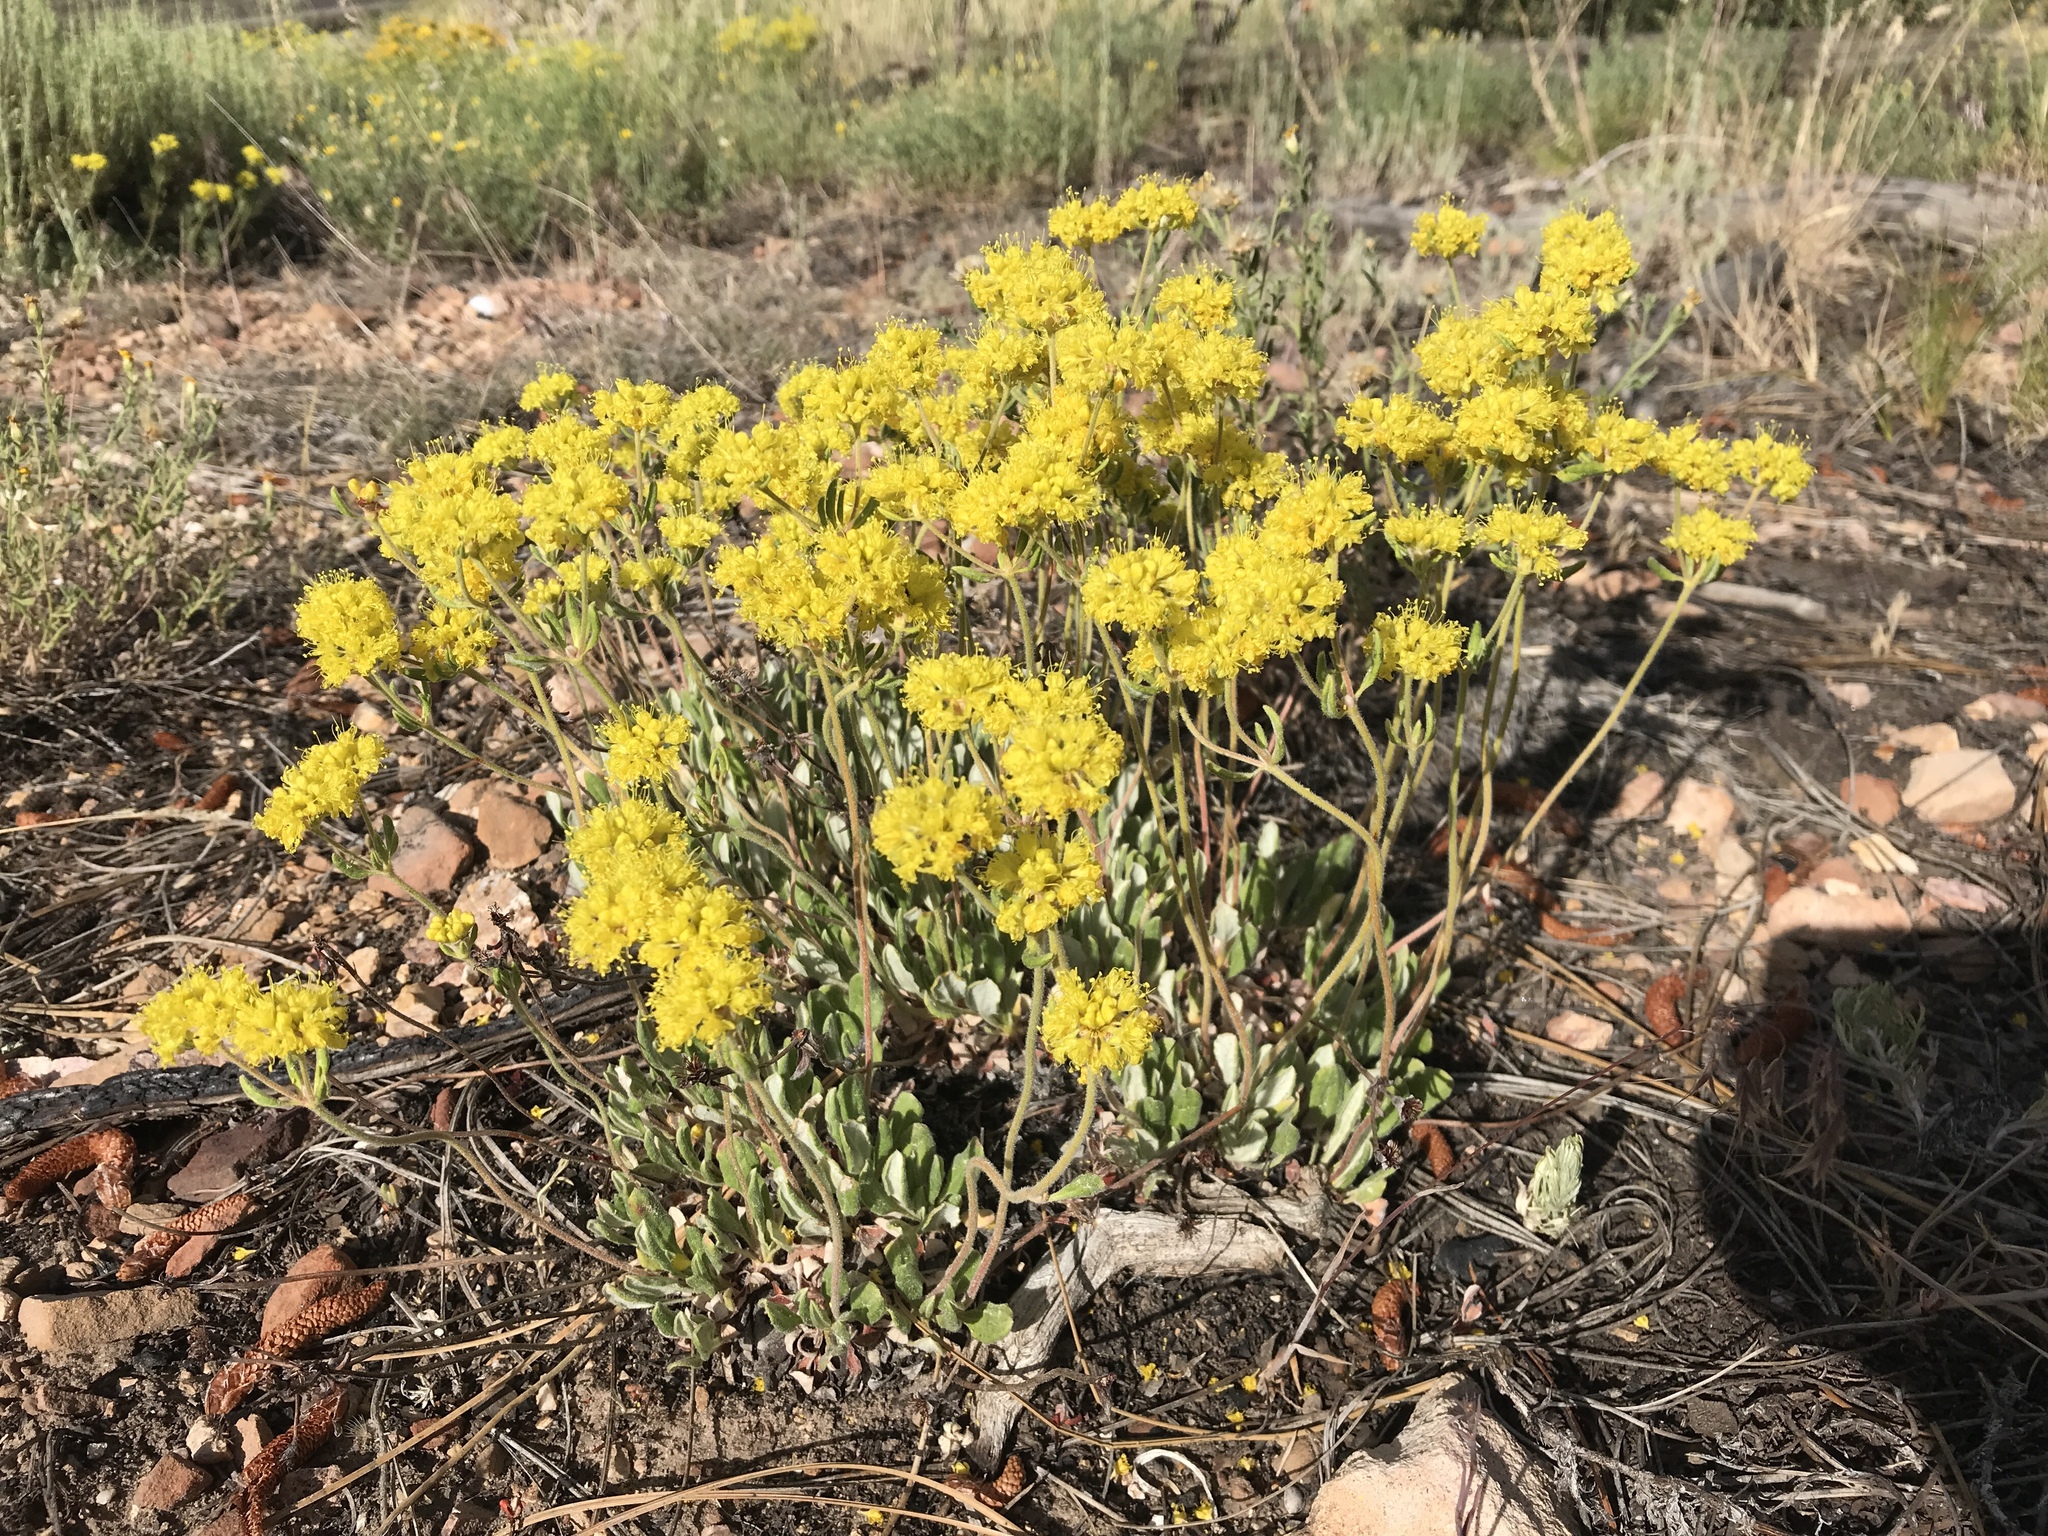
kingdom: Plantae
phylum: Tracheophyta
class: Magnoliopsida
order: Caryophyllales
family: Polygonaceae
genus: Eriogonum
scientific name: Eriogonum umbellatum
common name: Sulfur-buckwheat
